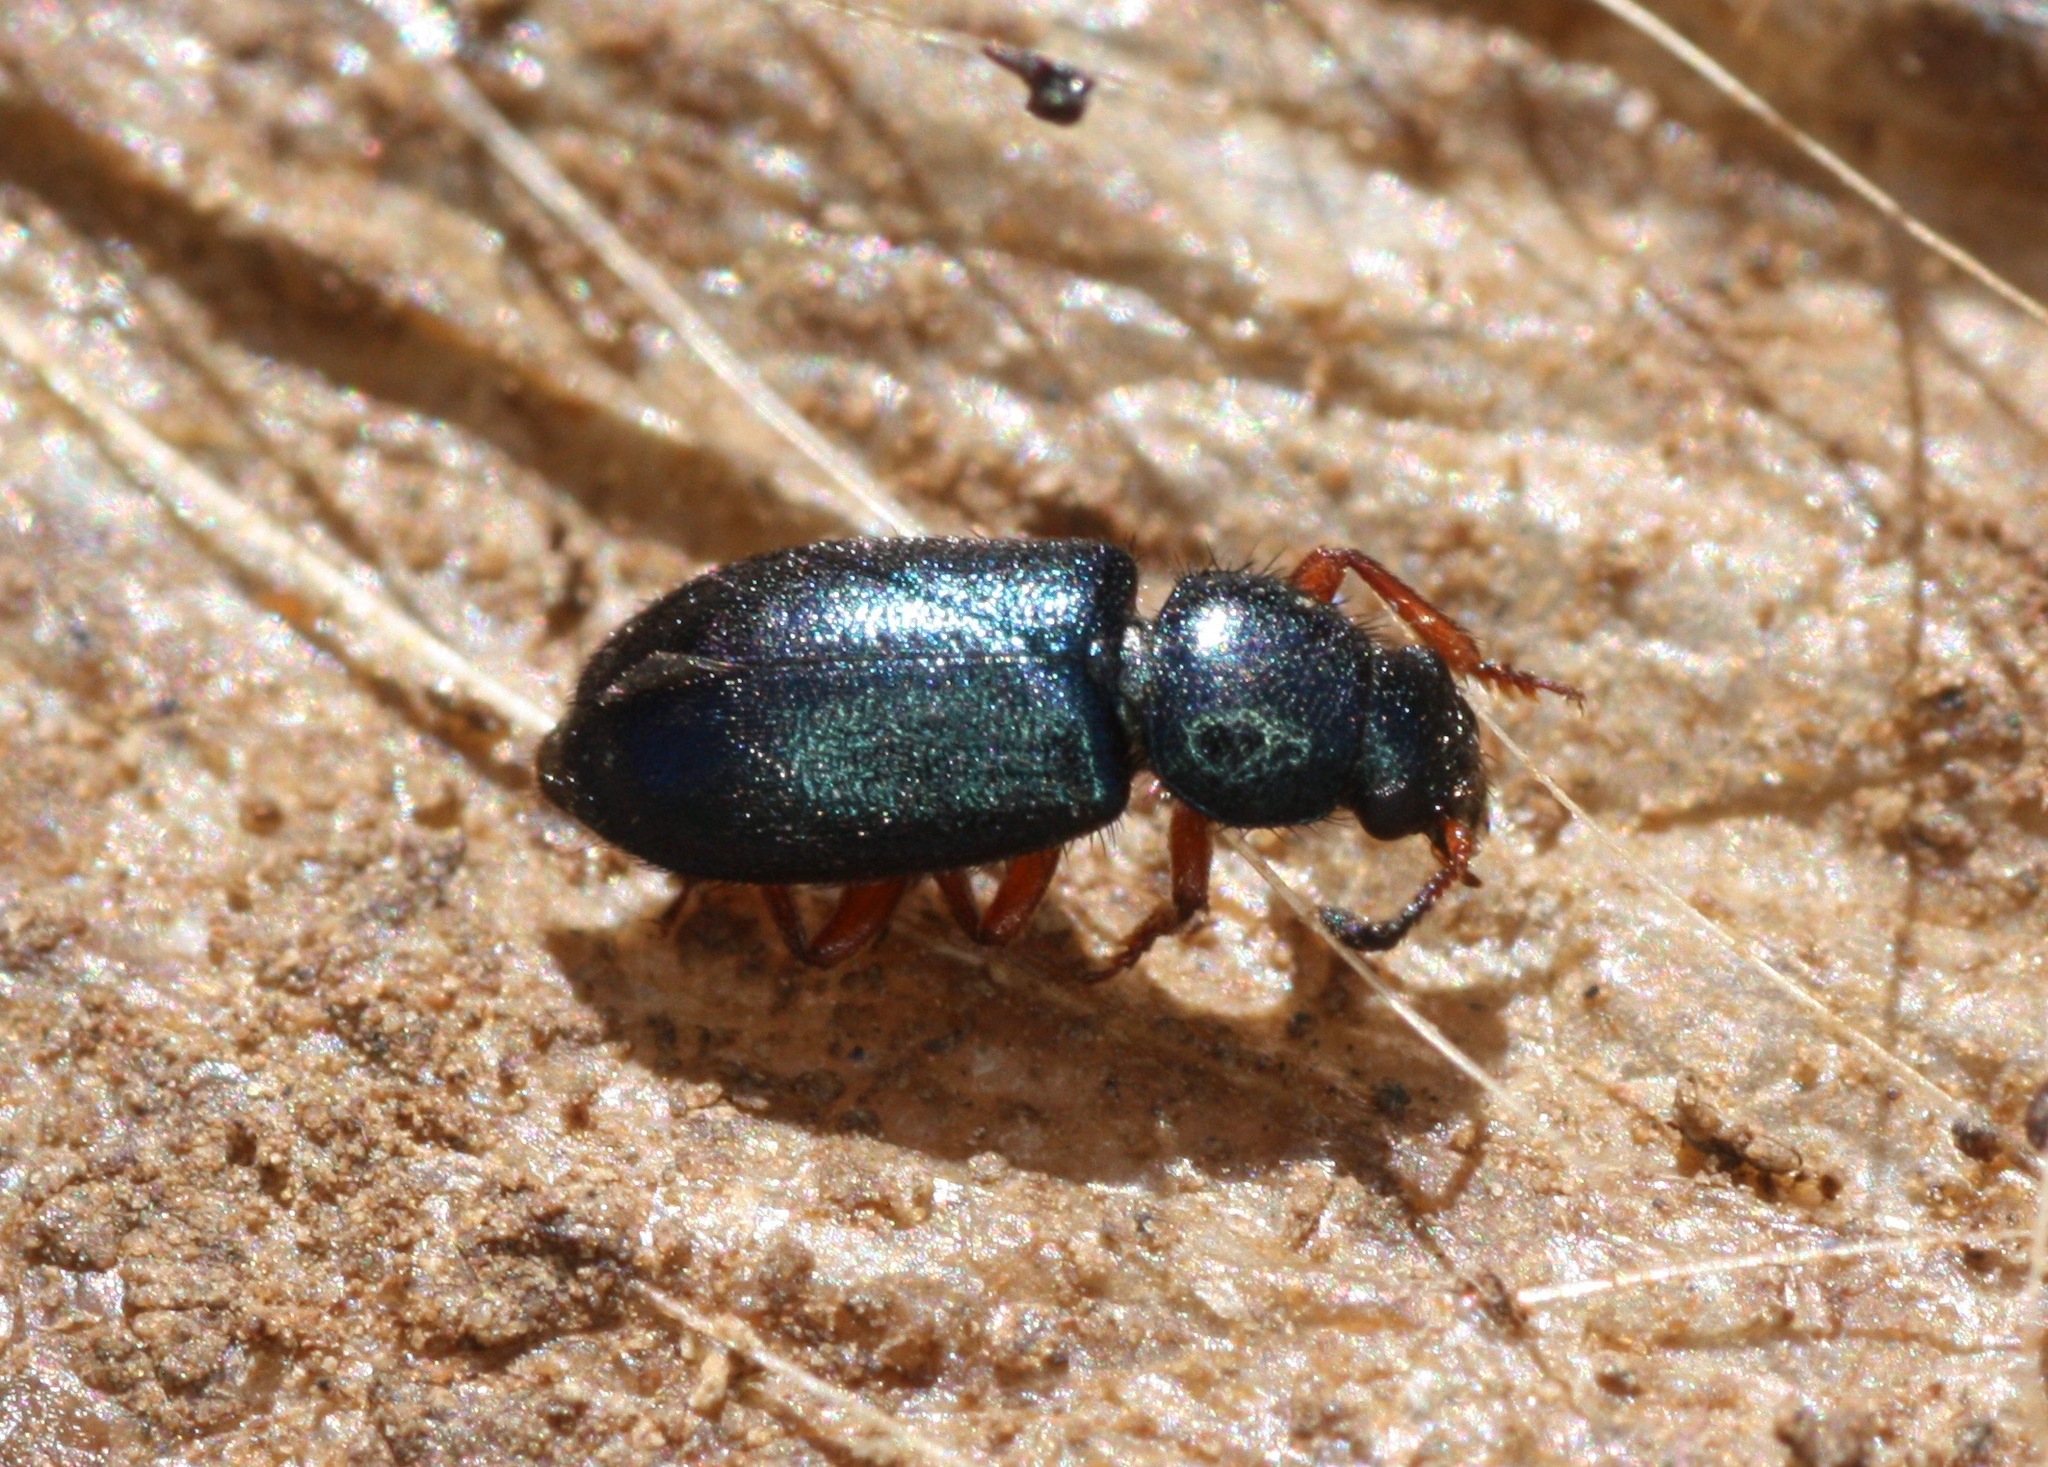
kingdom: Animalia
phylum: Arthropoda
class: Insecta
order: Coleoptera
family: Cleridae
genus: Necrobia
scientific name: Necrobia rufipes
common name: Red-legged ham beetle
